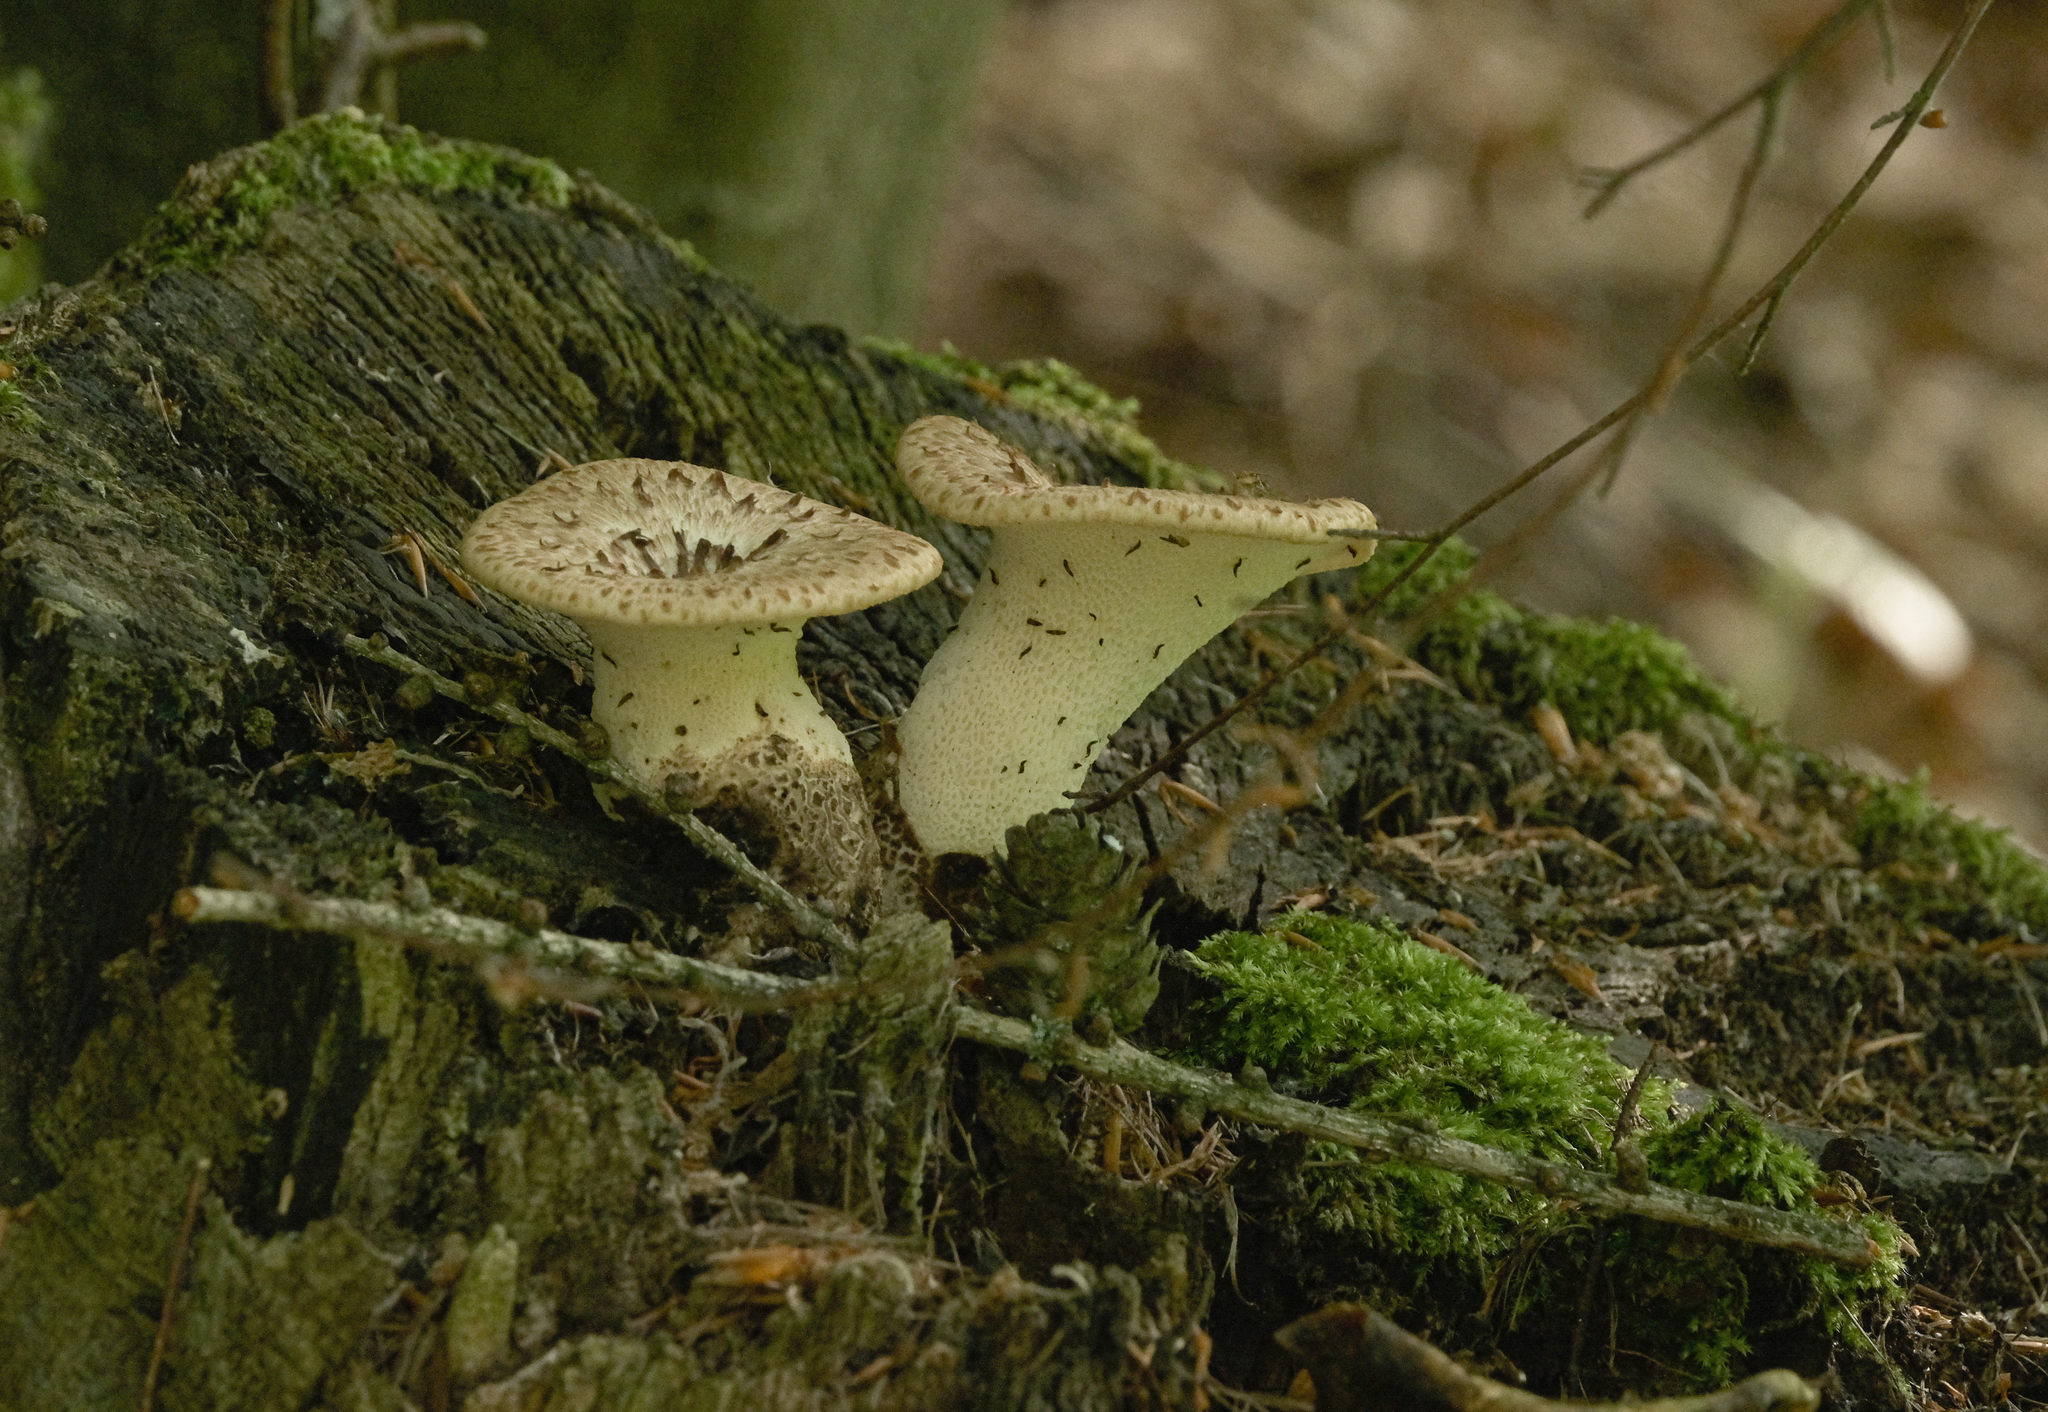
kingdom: Fungi
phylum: Basidiomycota
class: Agaricomycetes
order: Polyporales
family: Polyporaceae
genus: Polyporus
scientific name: Polyporus tuberaster
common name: Tuberous polypore
